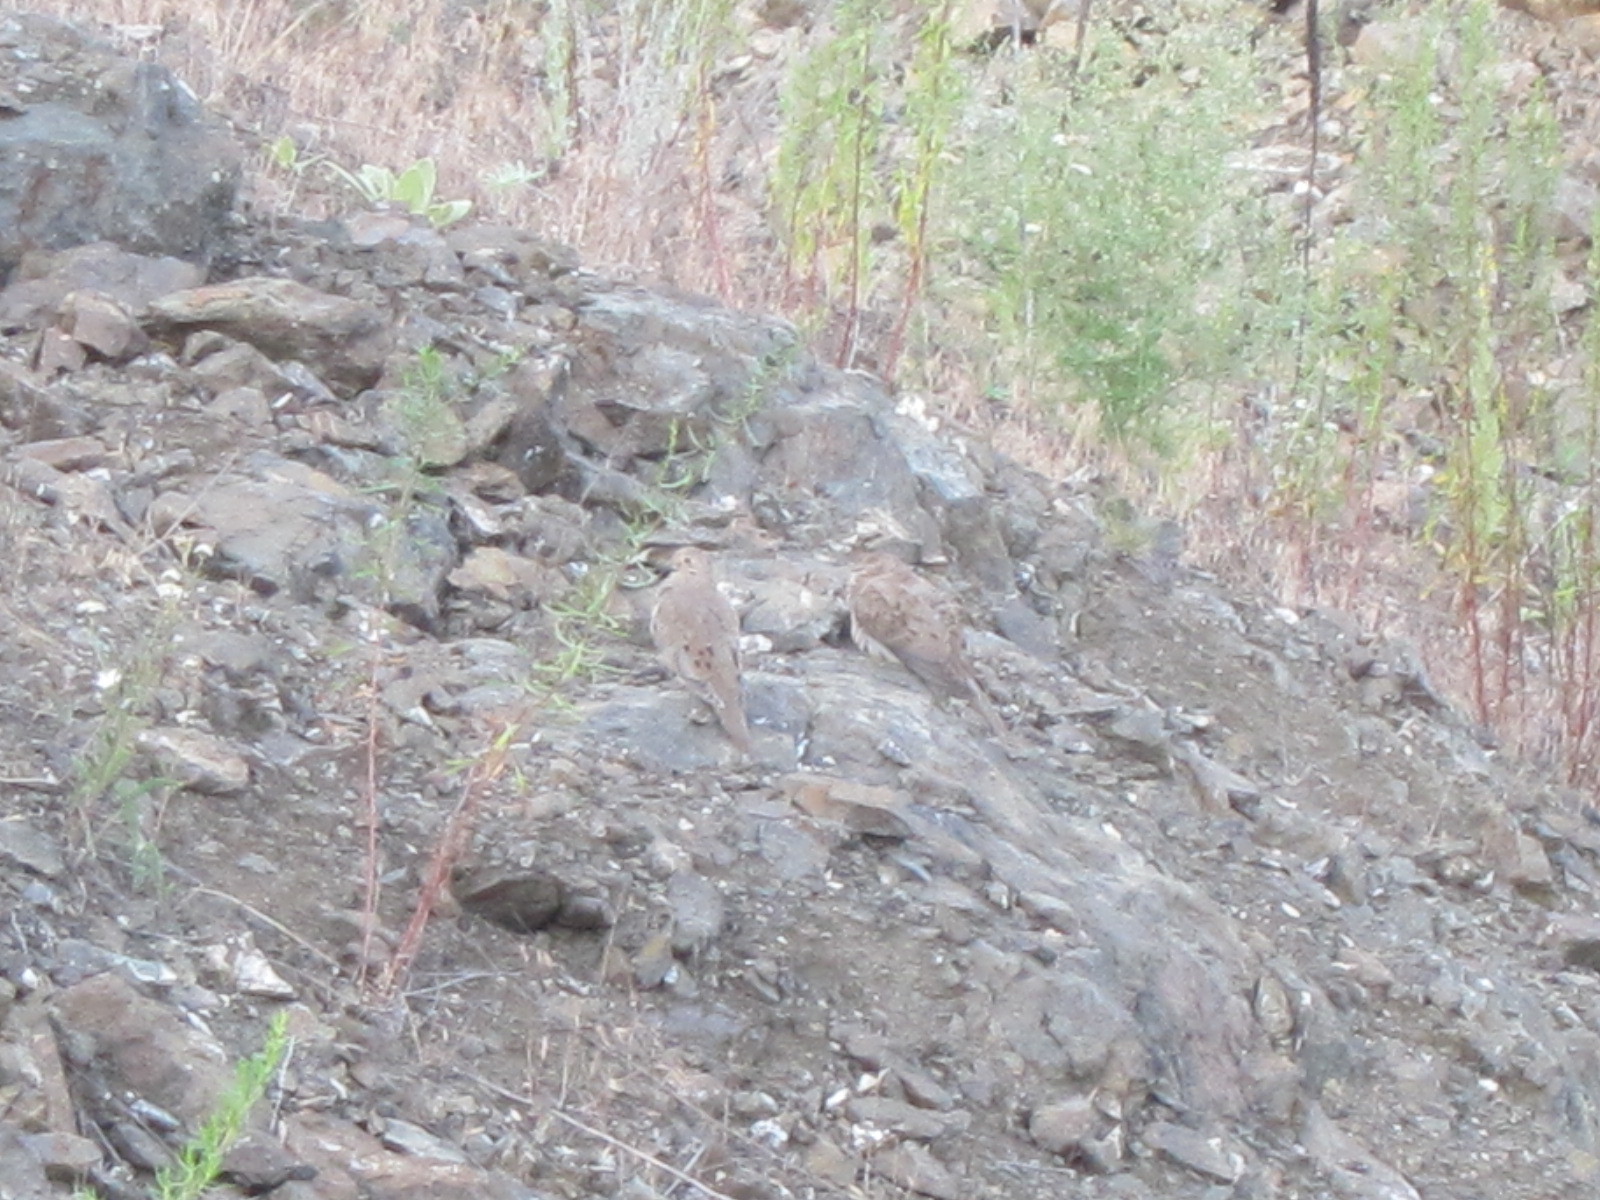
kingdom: Animalia
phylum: Chordata
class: Aves
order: Columbiformes
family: Columbidae
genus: Zenaida
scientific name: Zenaida macroura
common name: Mourning dove
